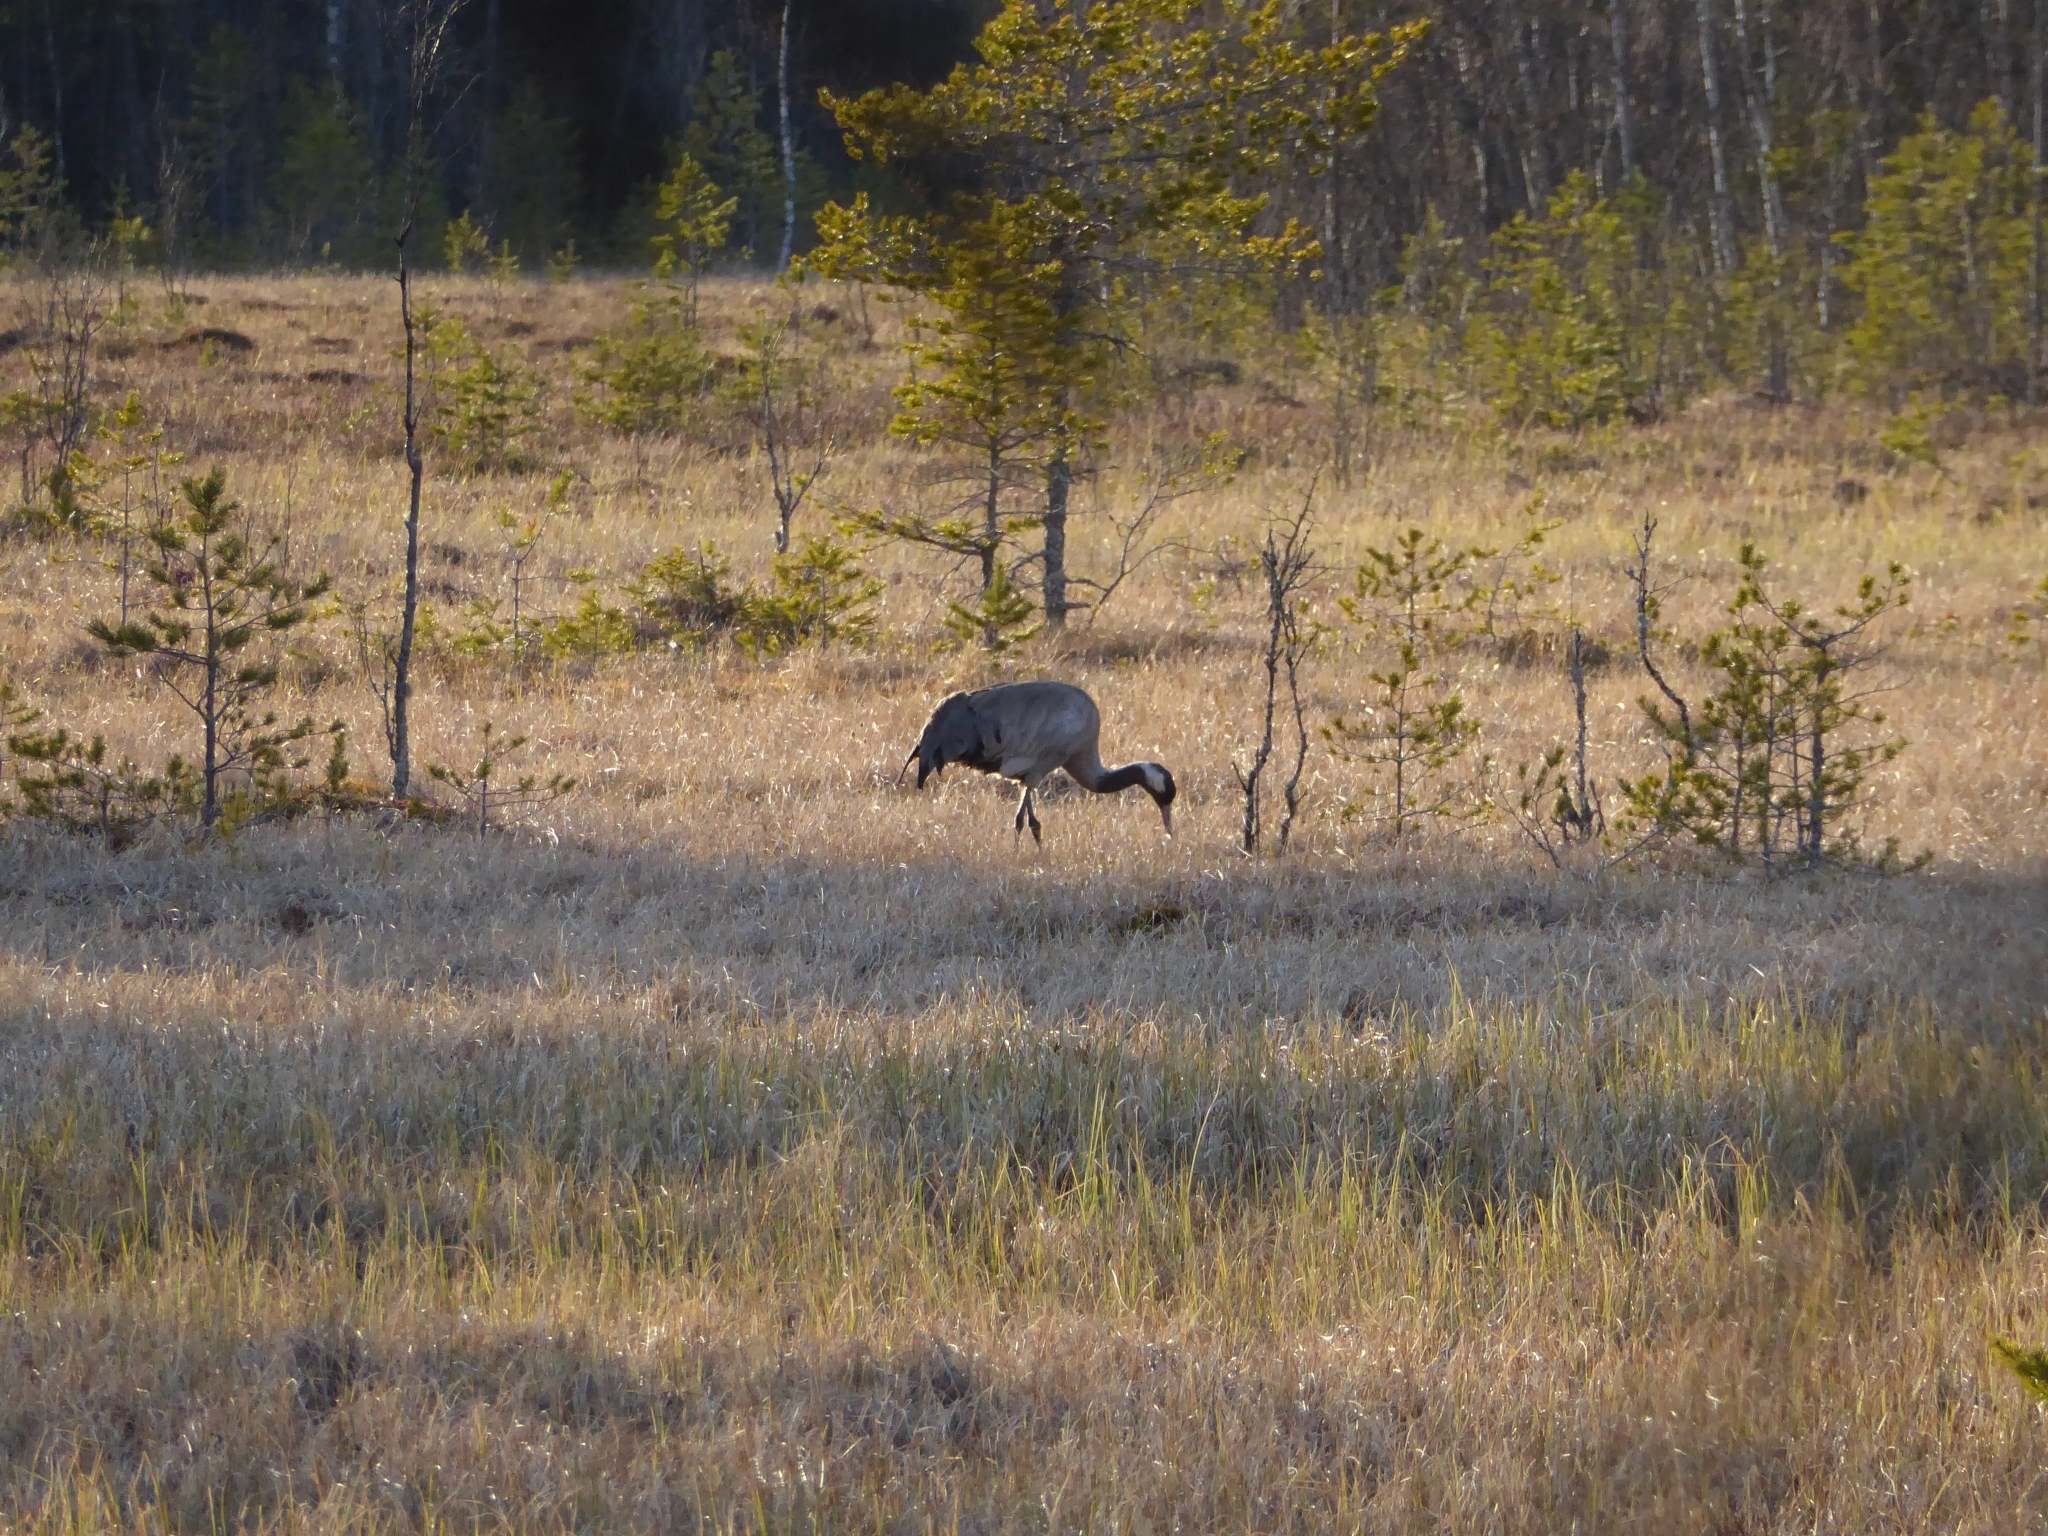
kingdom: Animalia
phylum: Chordata
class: Aves
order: Gruiformes
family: Gruidae
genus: Grus
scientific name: Grus grus
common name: Common crane
